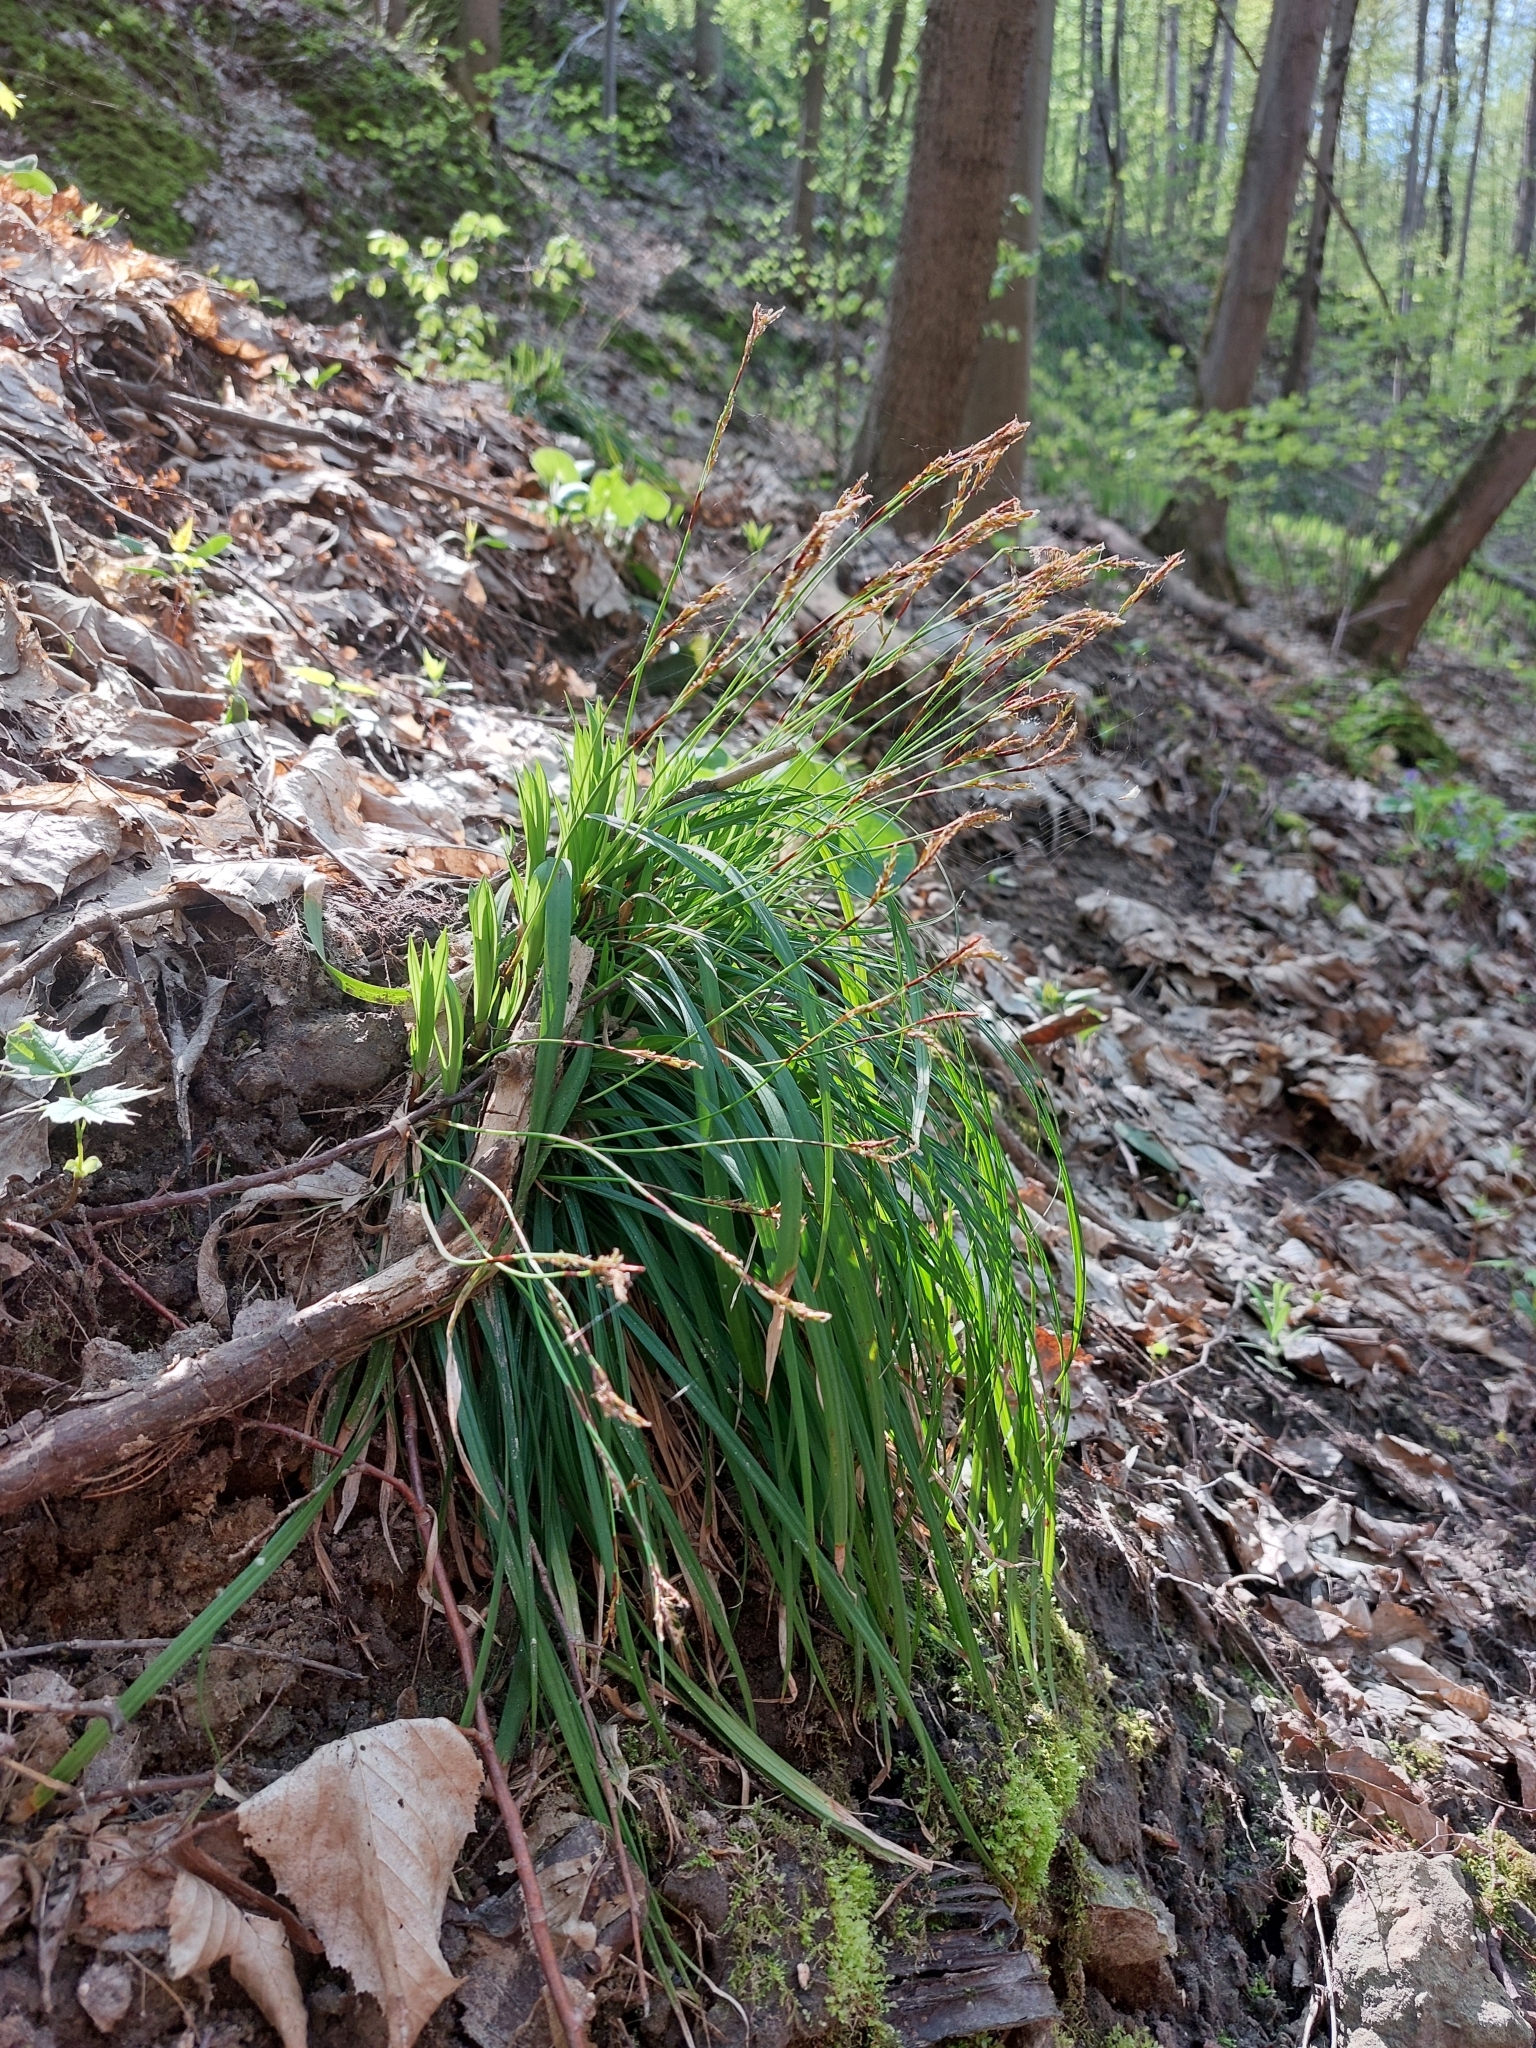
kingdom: Plantae
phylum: Tracheophyta
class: Liliopsida
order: Poales
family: Cyperaceae
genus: Carex
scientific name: Carex digitata
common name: Fingered sedge
